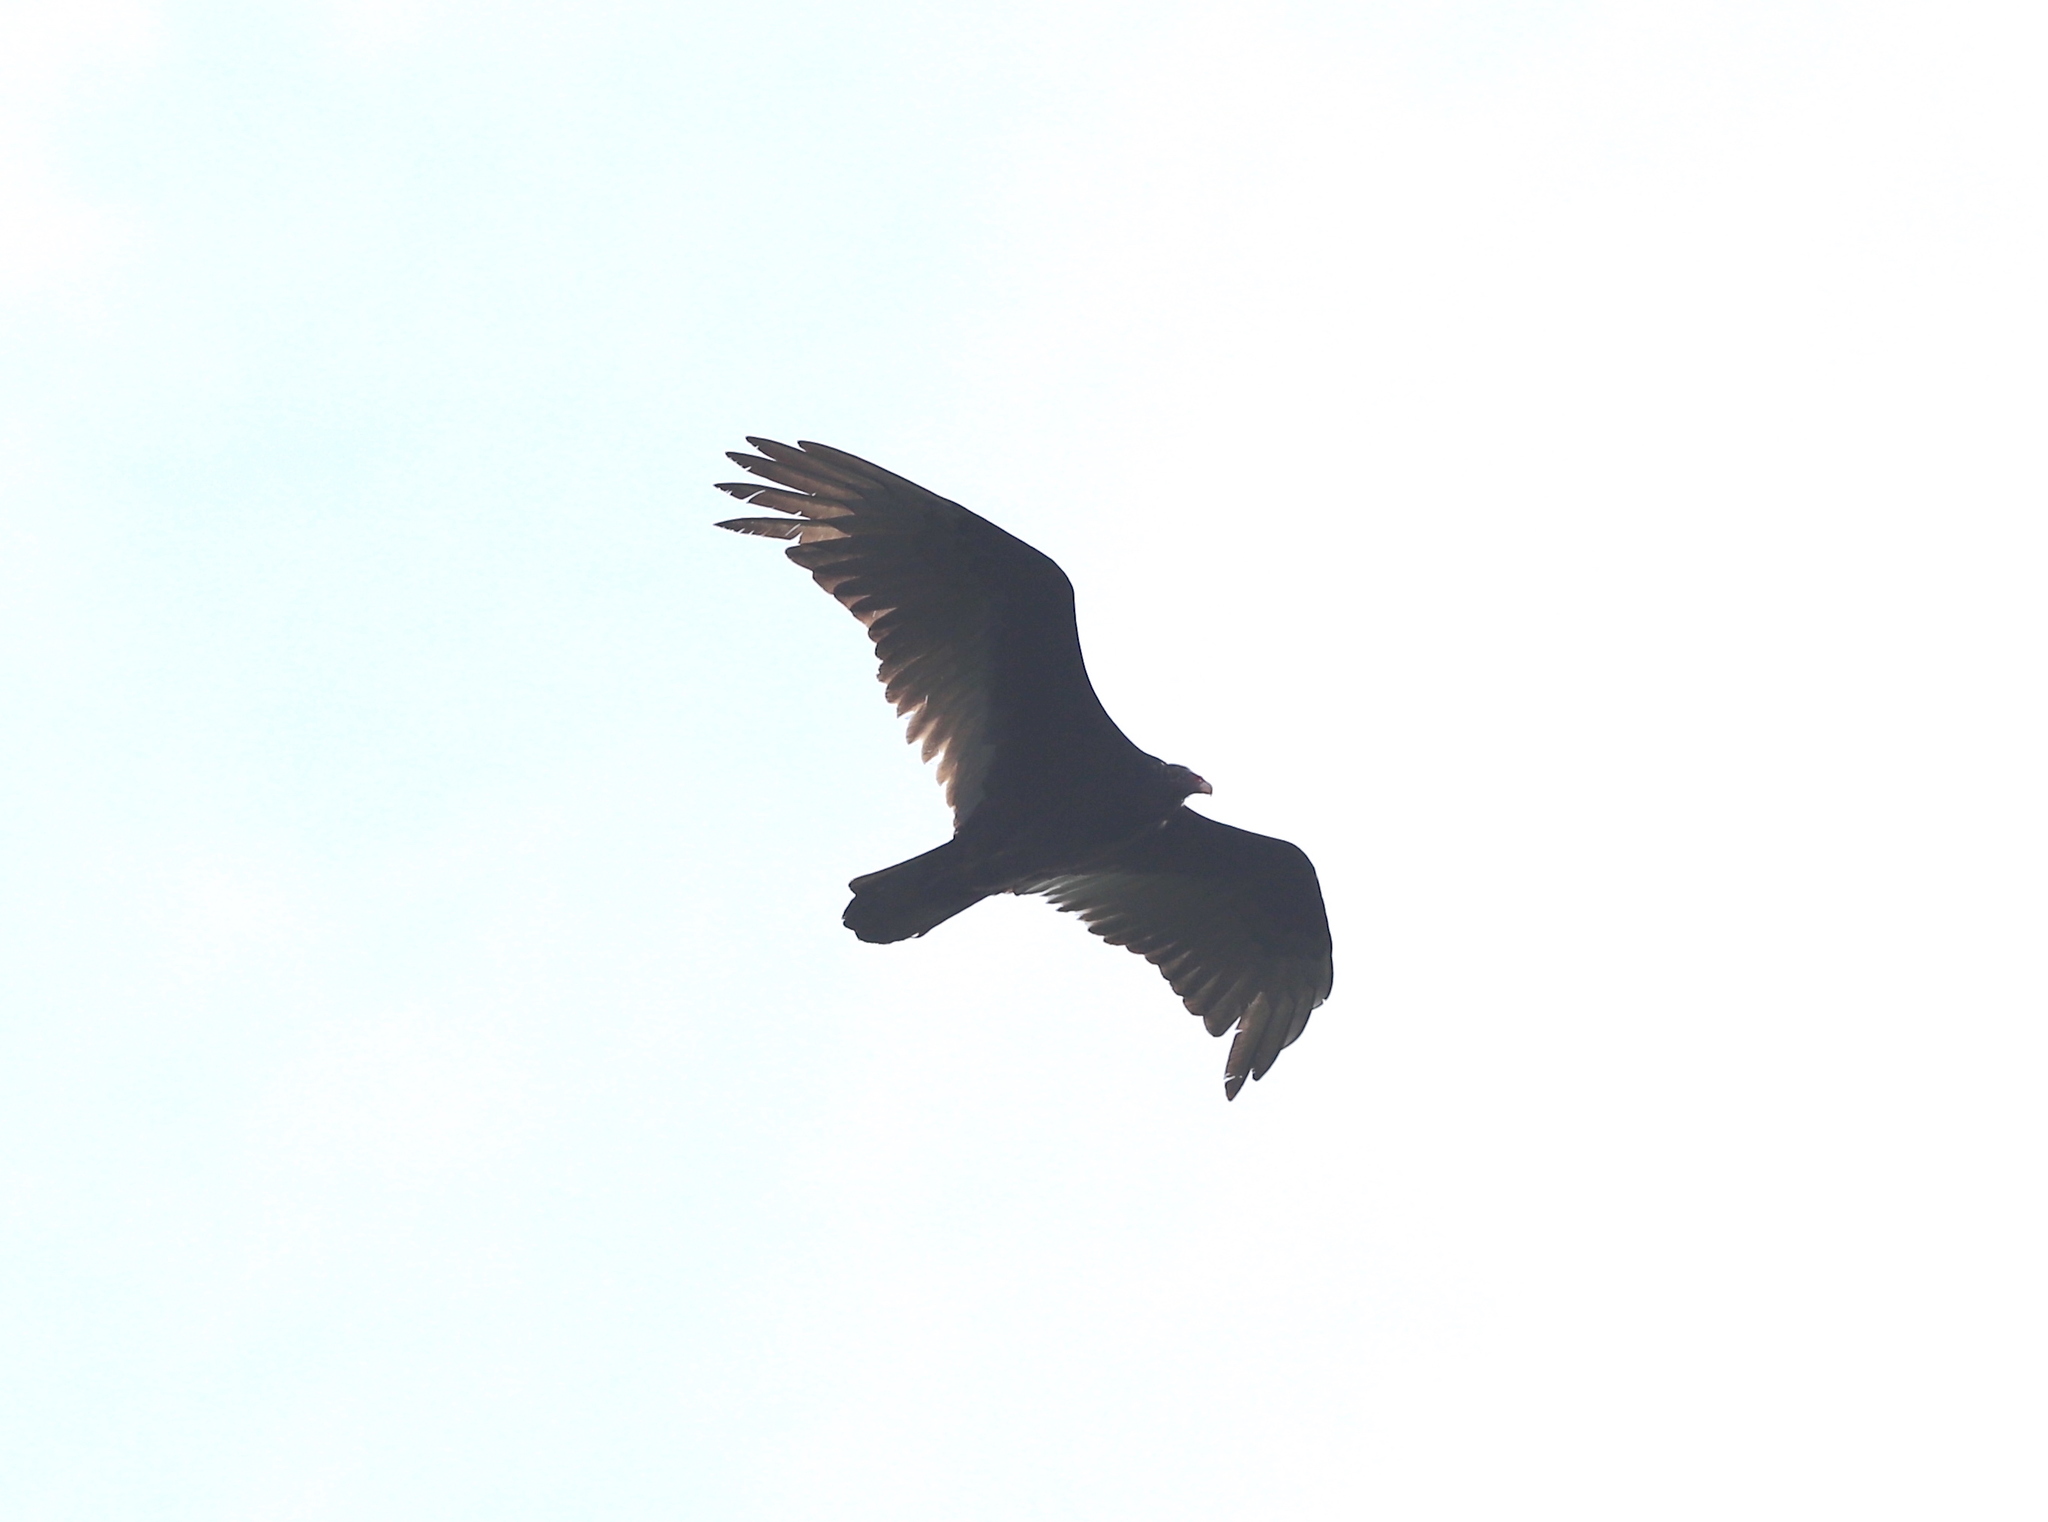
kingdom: Animalia
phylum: Chordata
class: Aves
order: Accipitriformes
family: Cathartidae
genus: Cathartes
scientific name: Cathartes aura
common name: Turkey vulture
